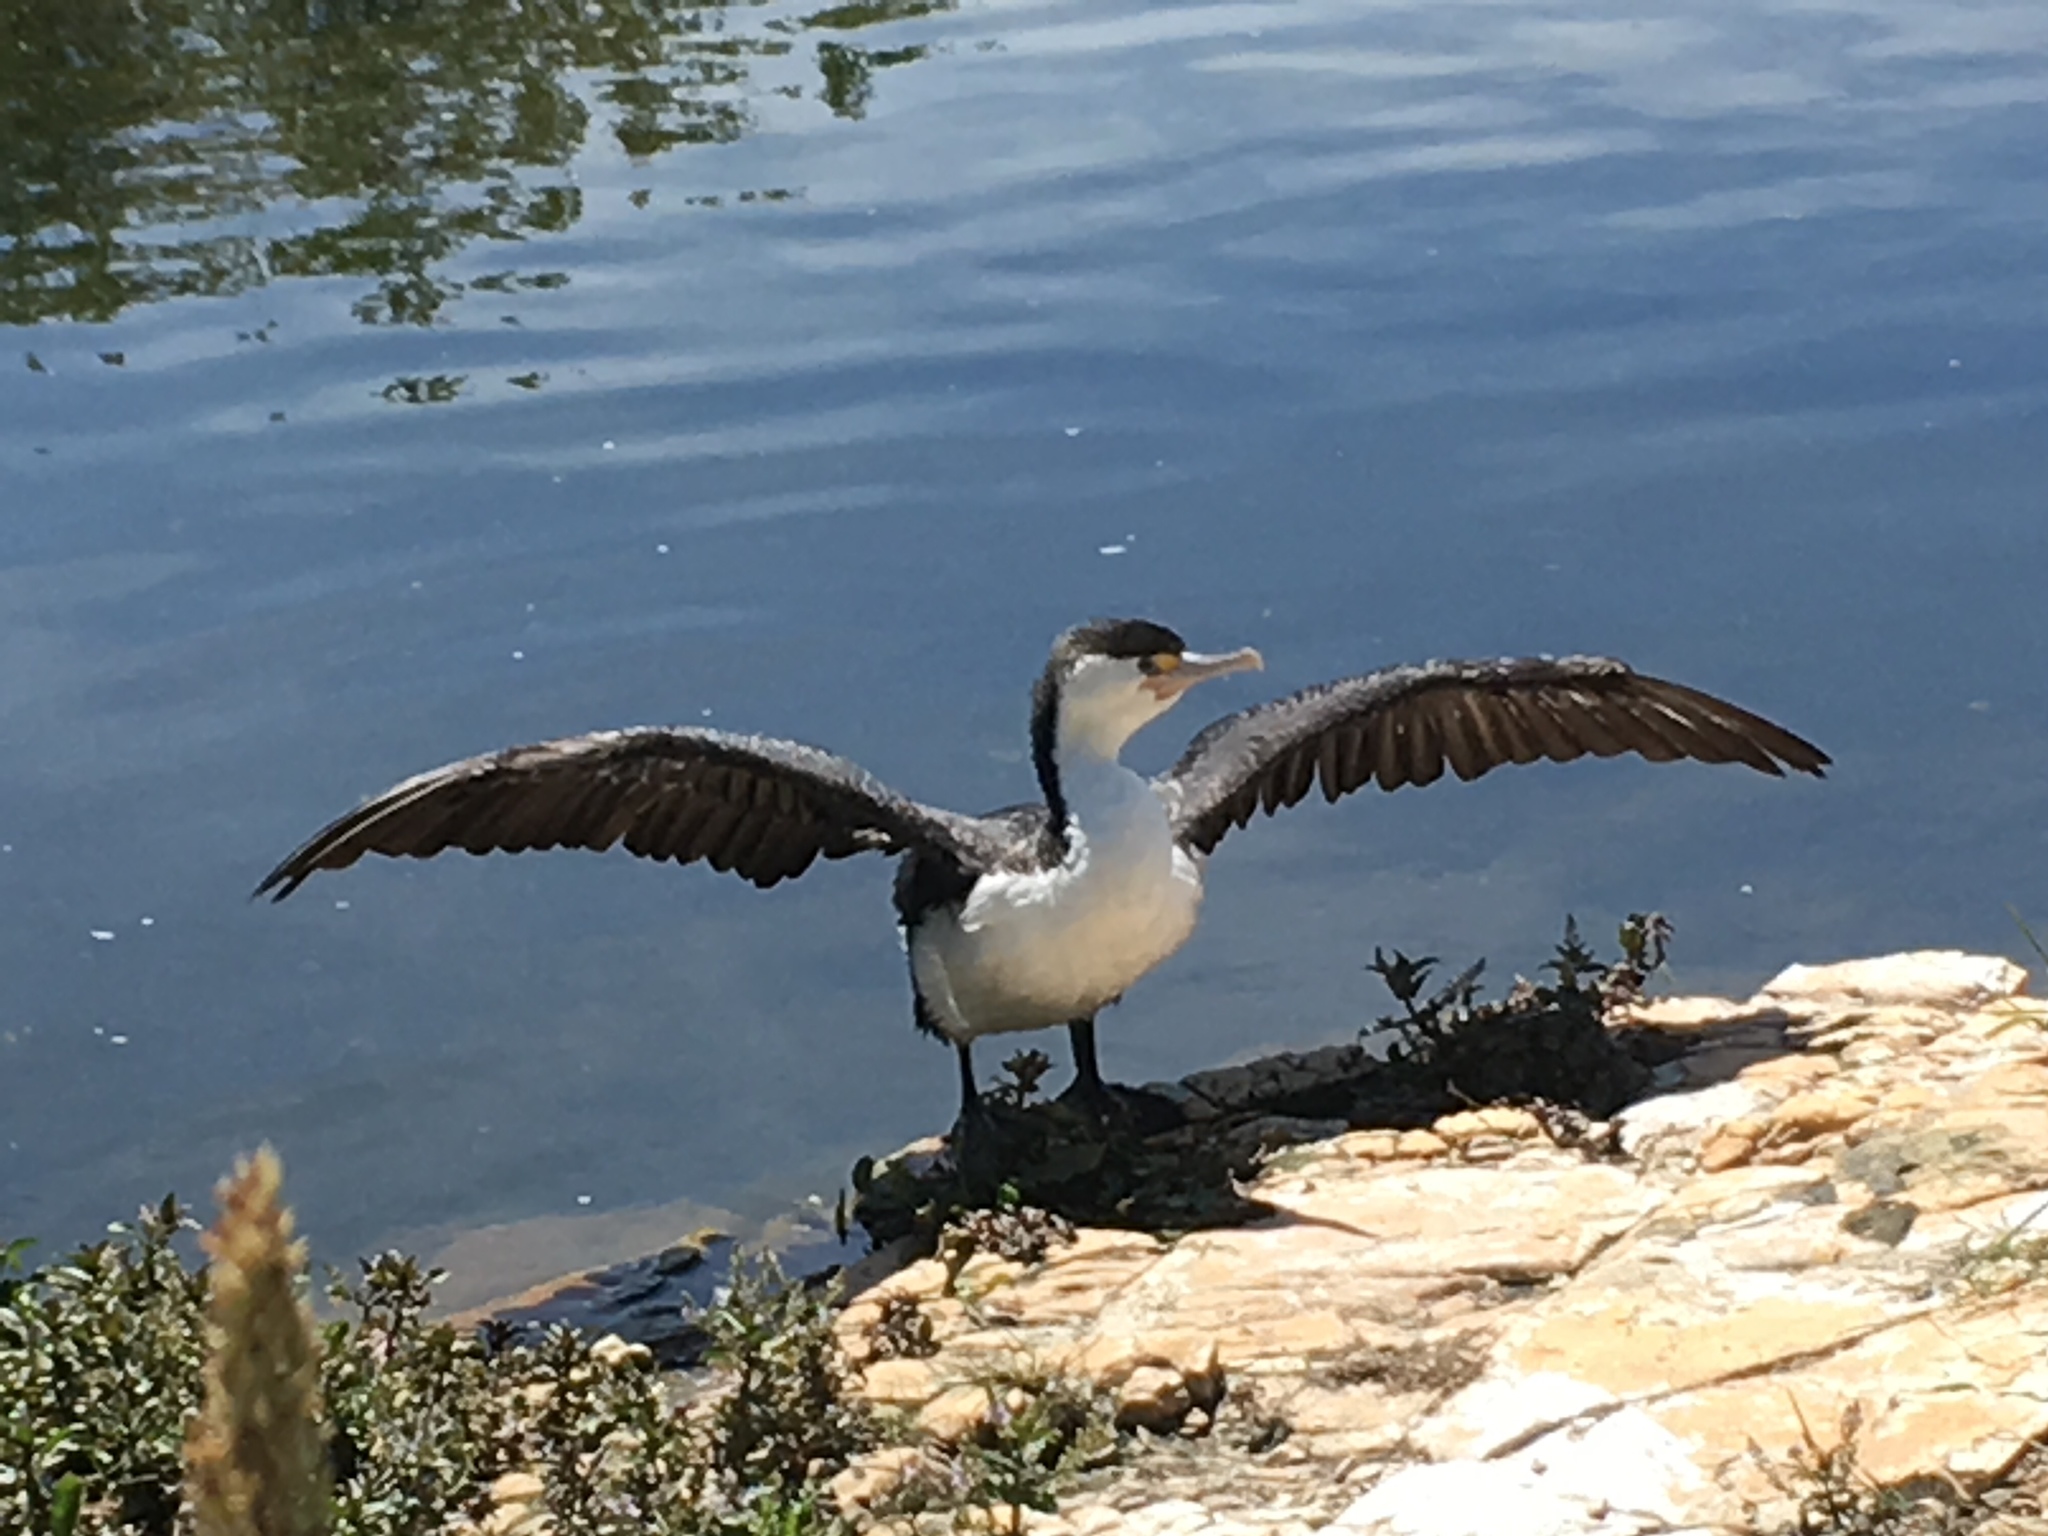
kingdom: Animalia
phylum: Chordata
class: Aves
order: Suliformes
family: Phalacrocoracidae
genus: Phalacrocorax
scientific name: Phalacrocorax varius
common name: Pied cormorant
